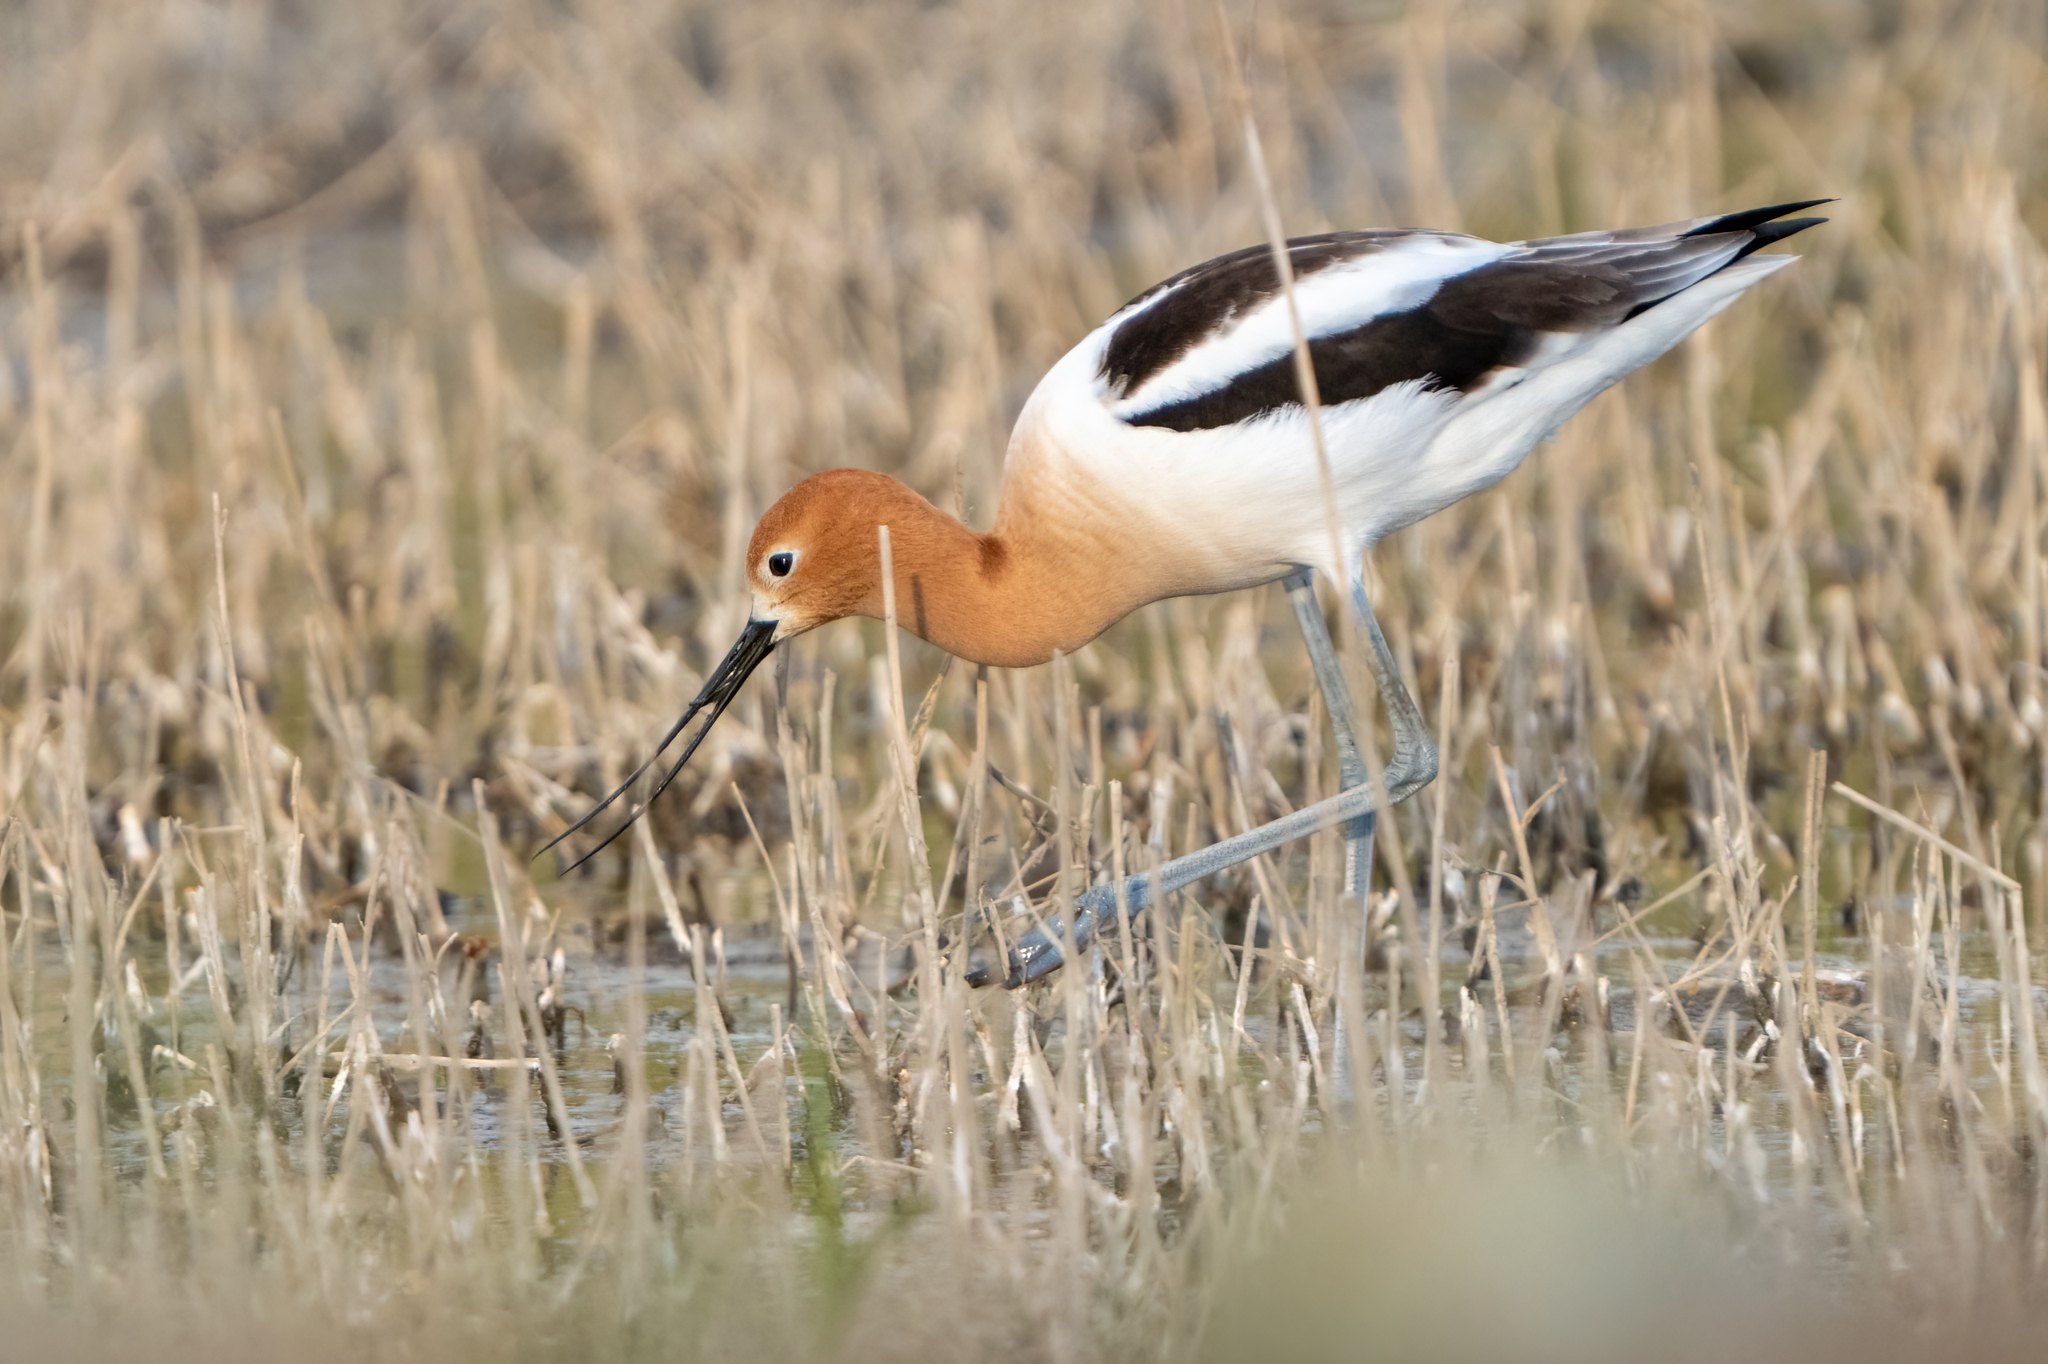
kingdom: Animalia
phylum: Chordata
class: Aves
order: Charadriiformes
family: Recurvirostridae
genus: Recurvirostra
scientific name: Recurvirostra americana
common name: American avocet
